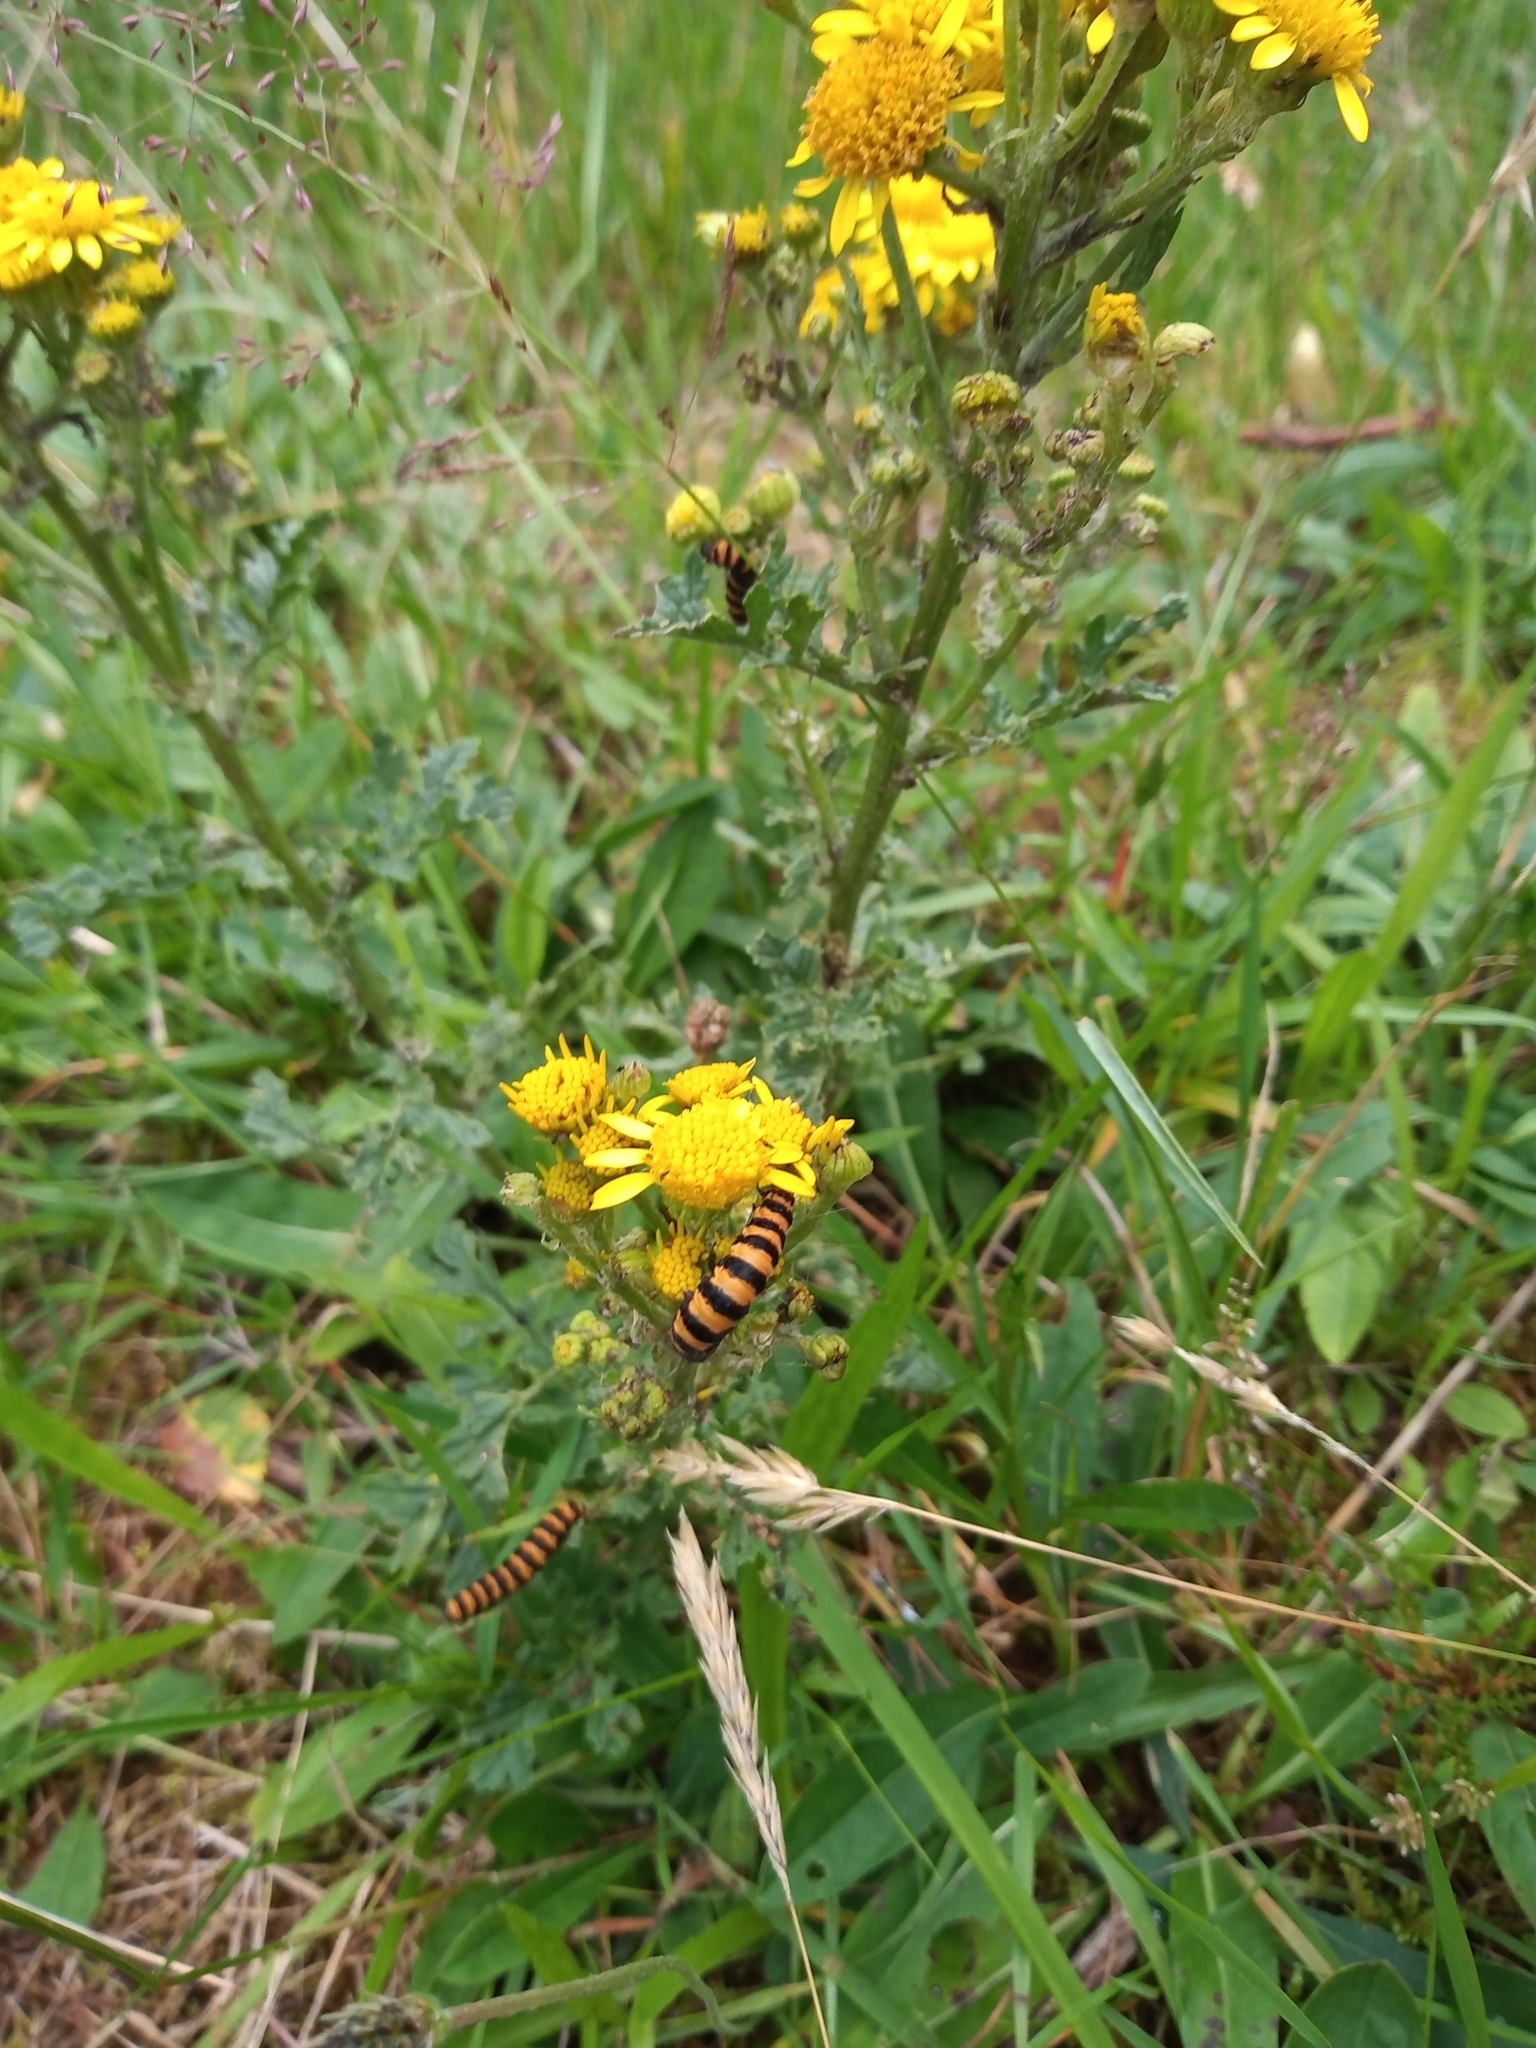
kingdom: Animalia
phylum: Arthropoda
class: Insecta
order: Lepidoptera
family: Erebidae
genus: Tyria
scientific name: Tyria jacobaeae
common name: Cinnabar
